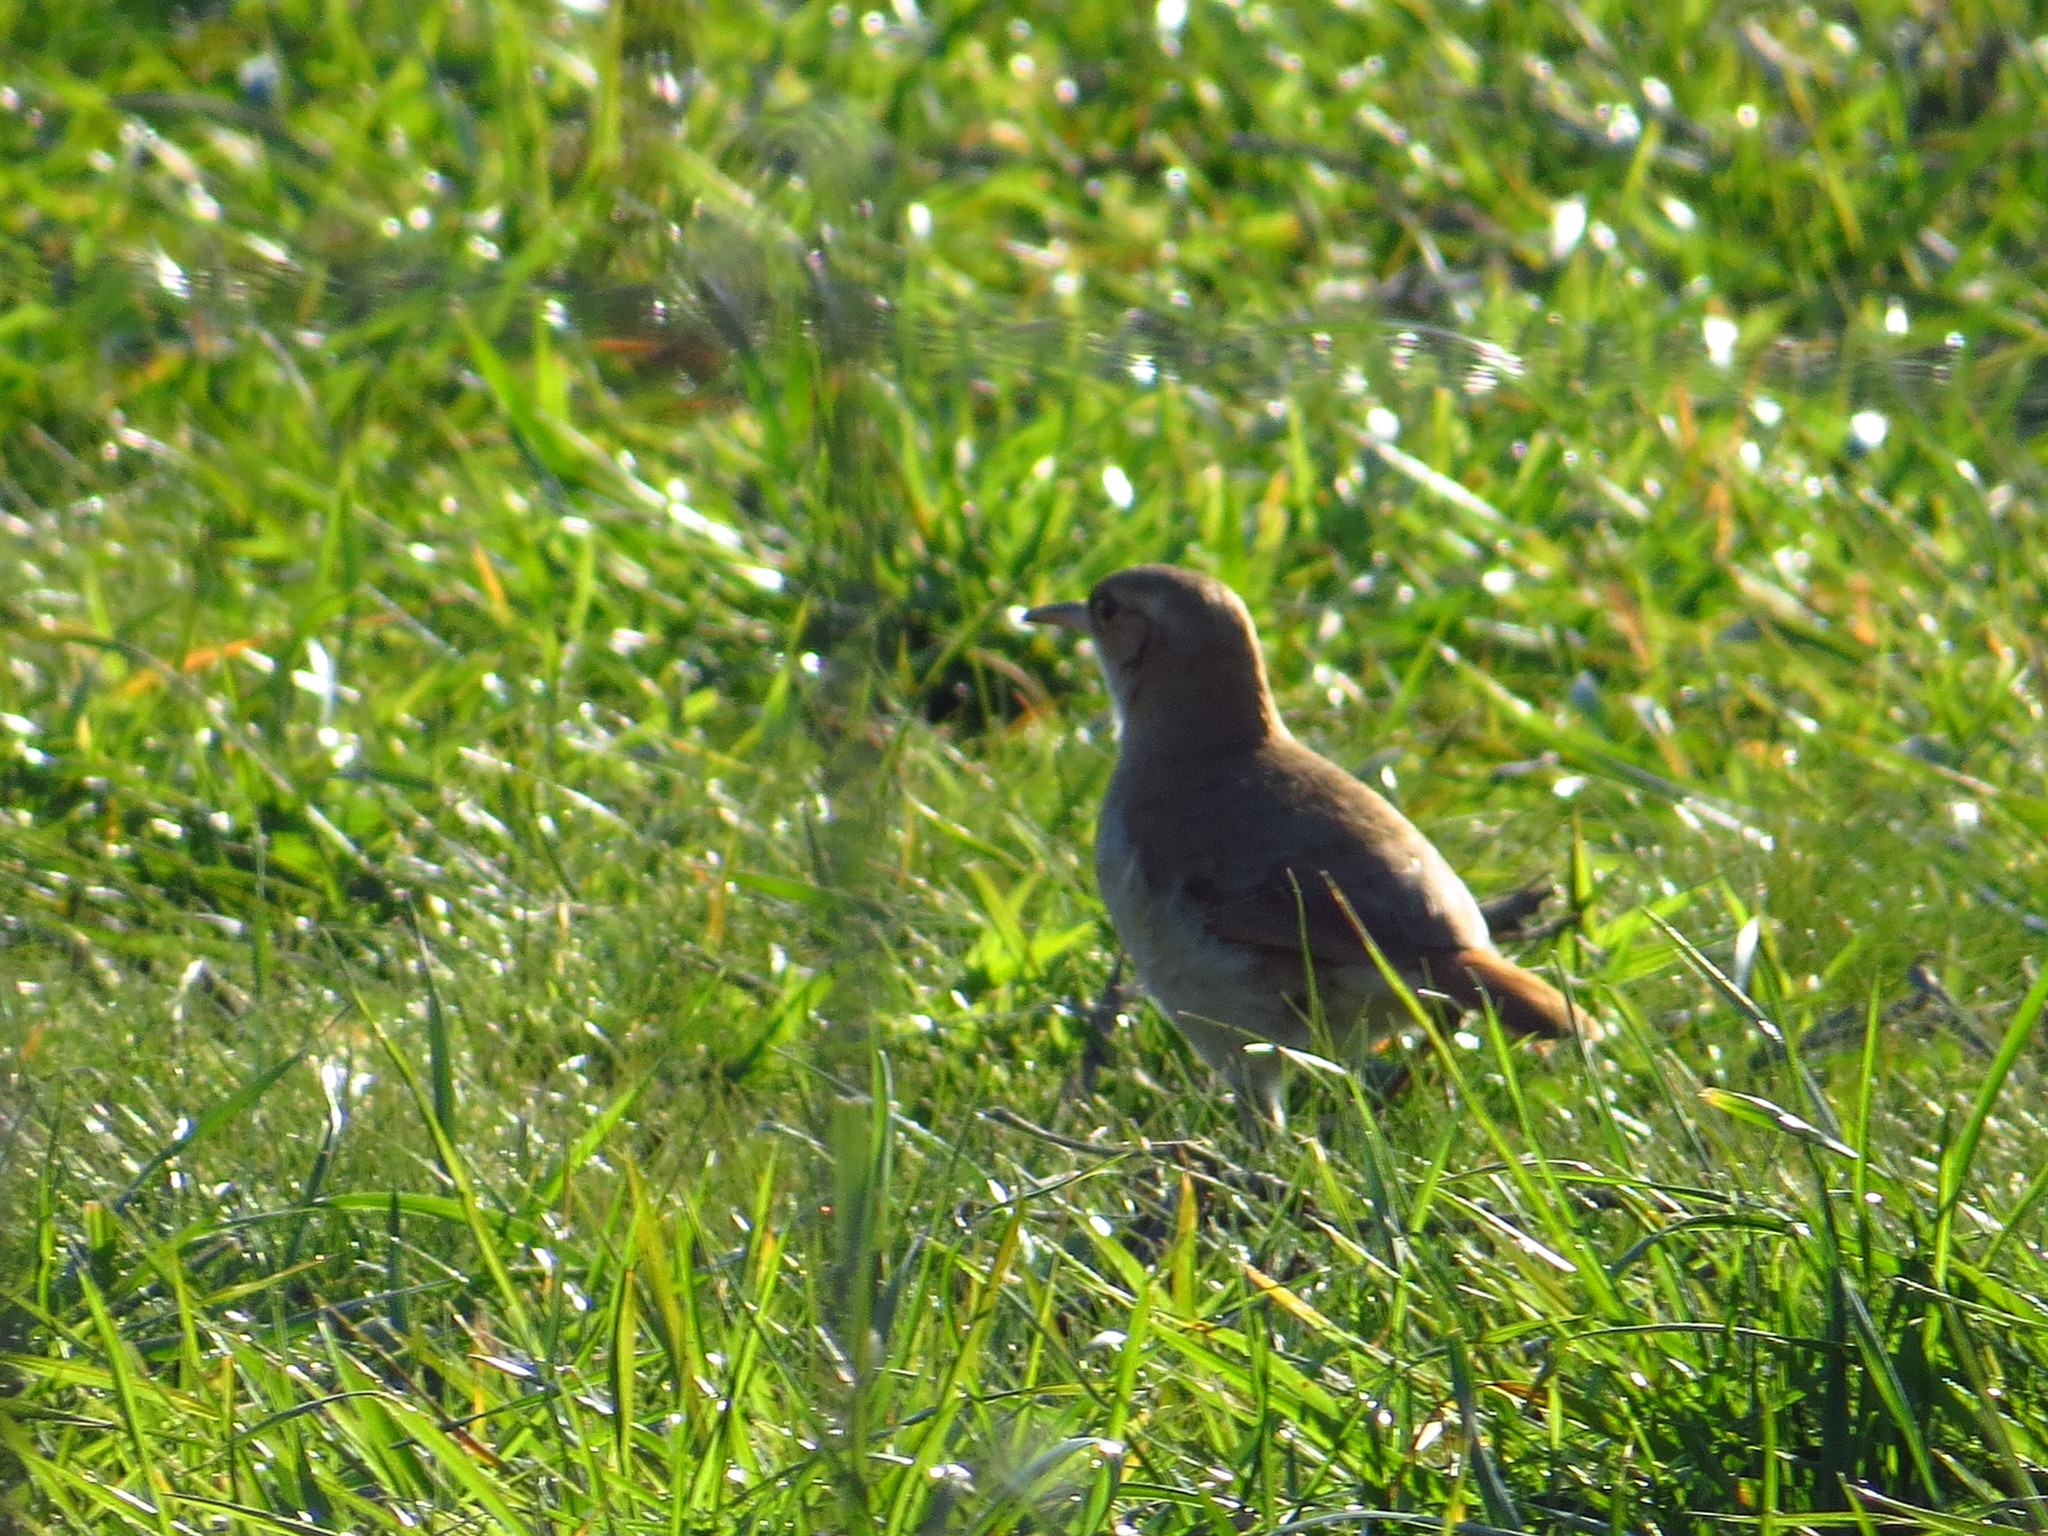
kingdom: Animalia
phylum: Chordata
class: Aves
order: Passeriformes
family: Furnariidae
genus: Furnarius
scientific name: Furnarius rufus
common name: Rufous hornero
